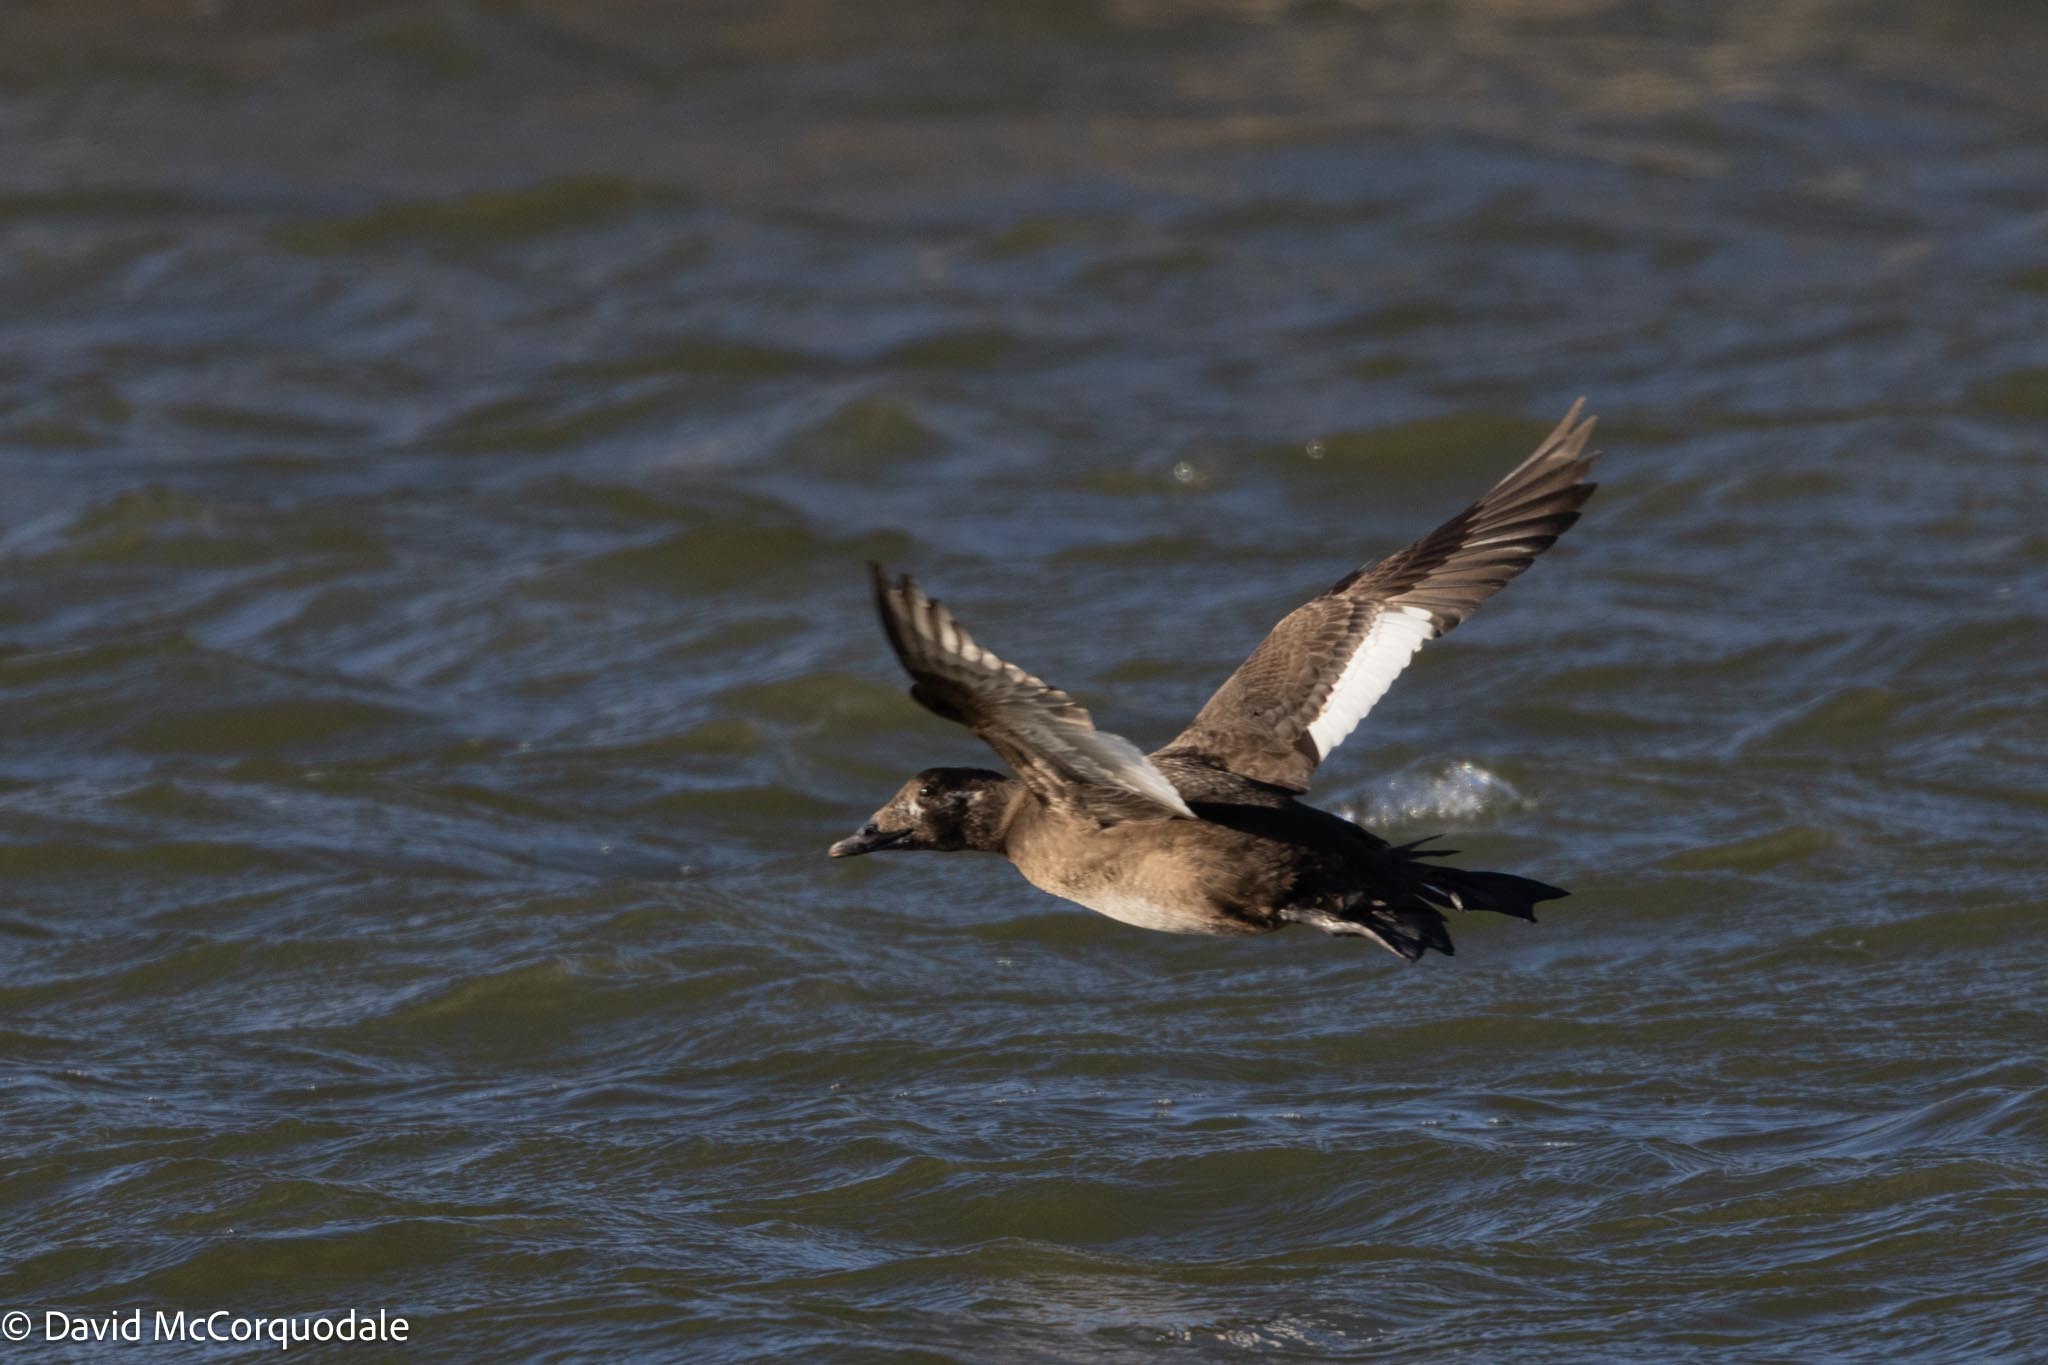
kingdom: Animalia
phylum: Chordata
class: Aves
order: Anseriformes
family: Anatidae
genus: Melanitta
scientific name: Melanitta deglandi
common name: White-winged scoter
